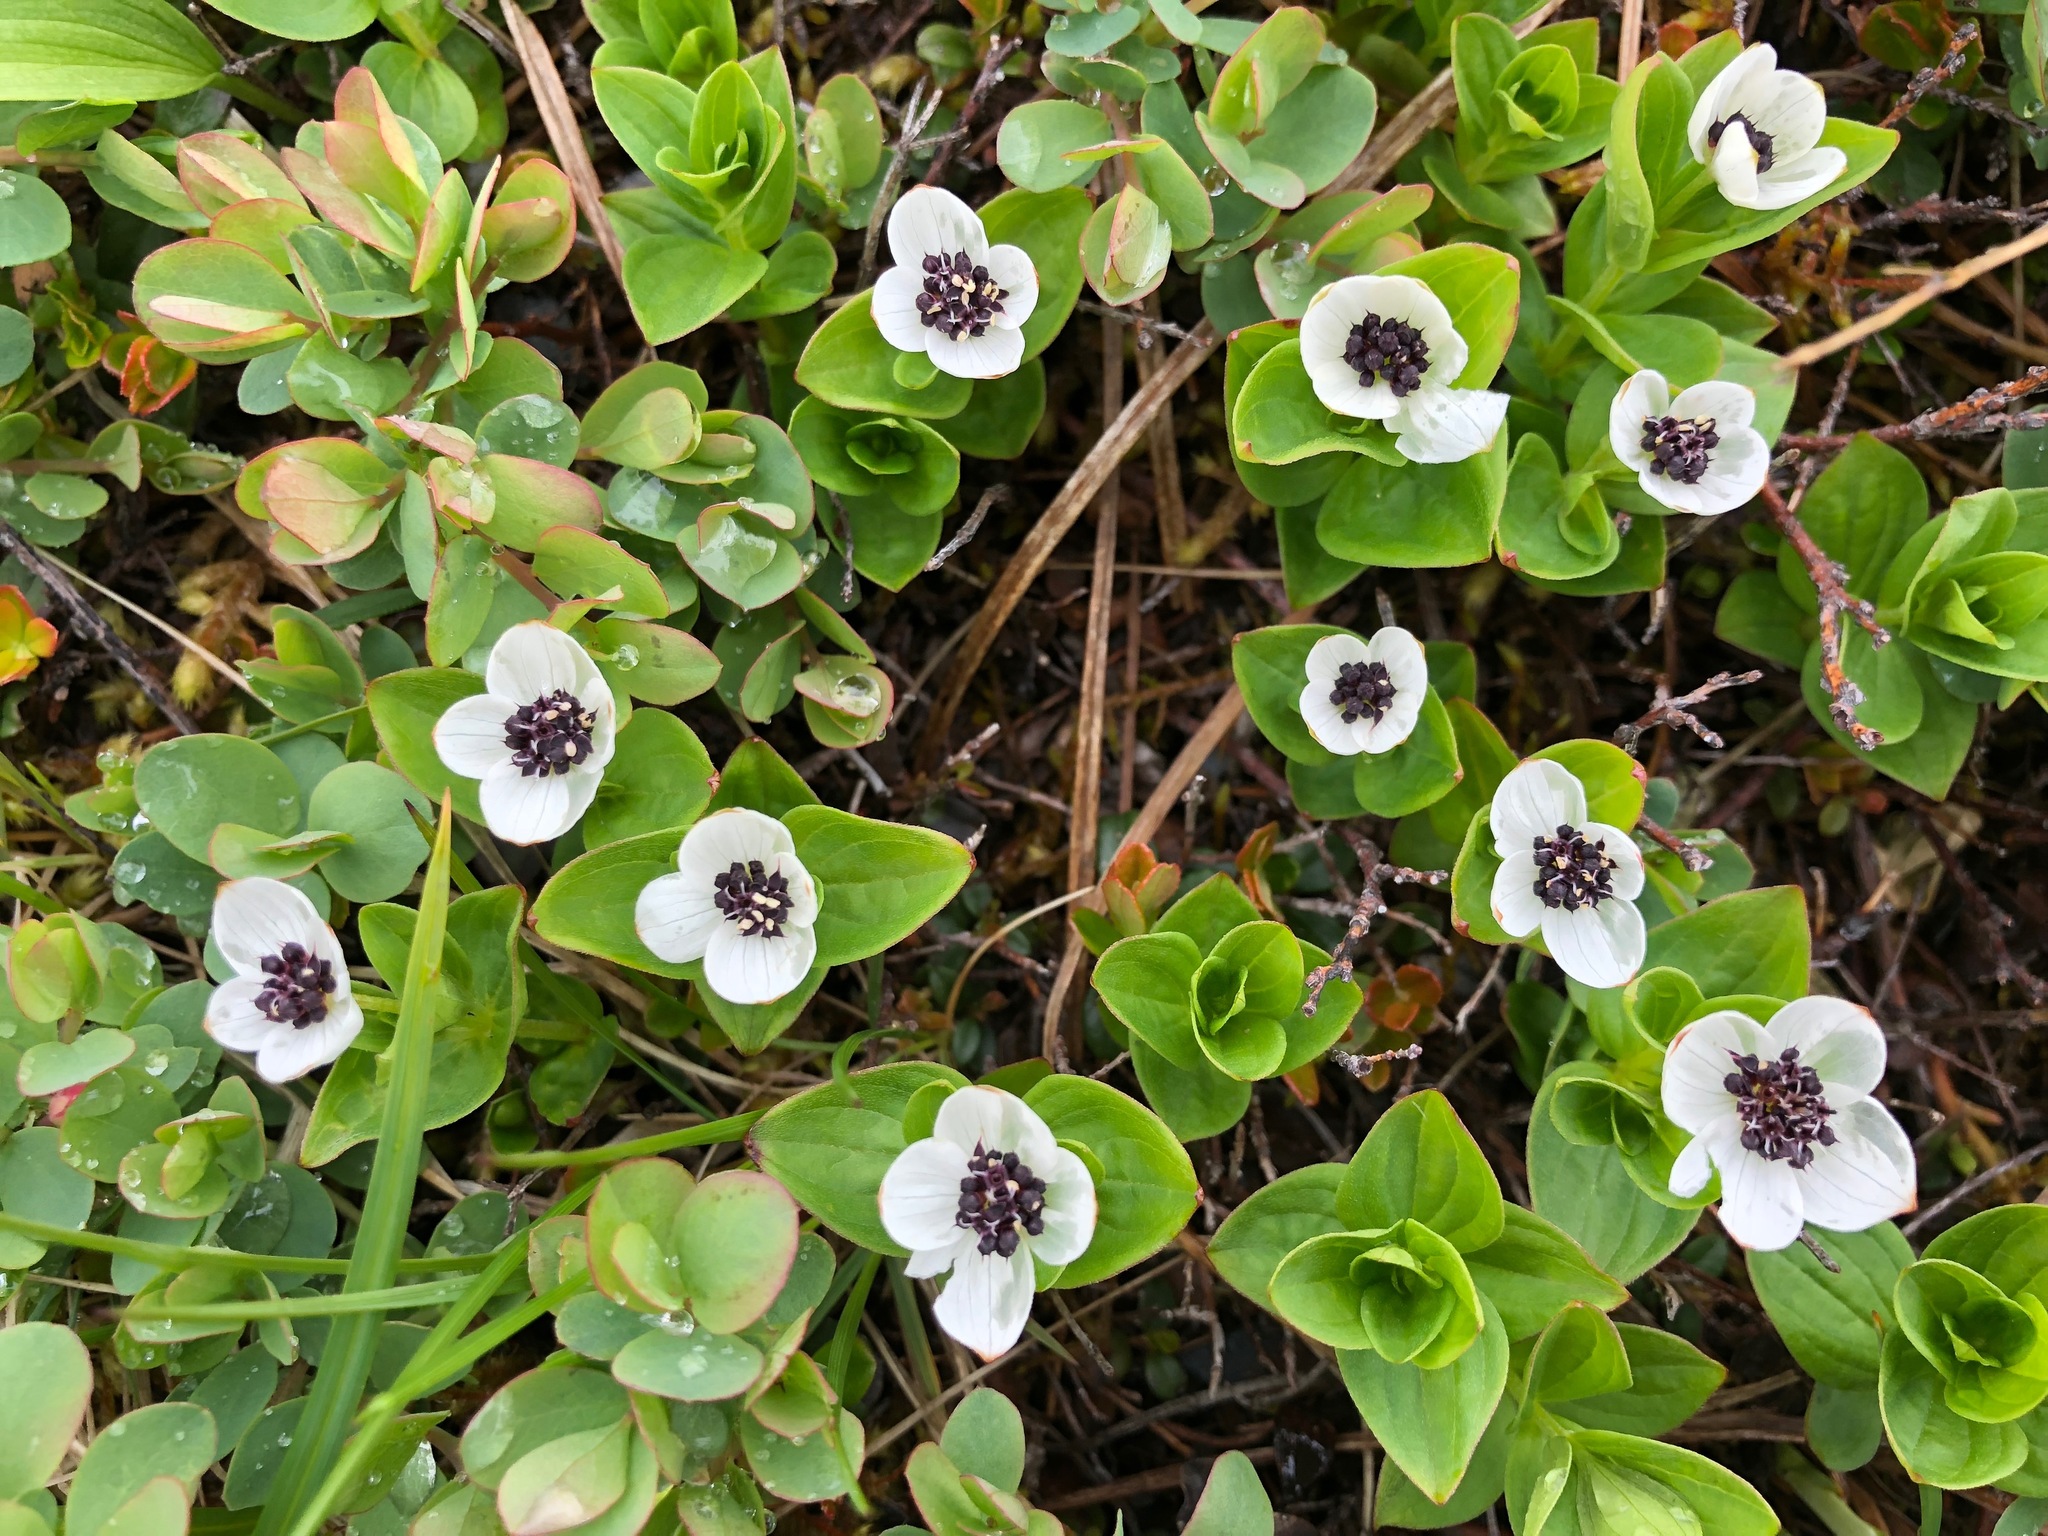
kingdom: Plantae
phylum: Tracheophyta
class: Magnoliopsida
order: Cornales
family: Cornaceae
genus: Cornus
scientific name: Cornus suecica
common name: Dwarf cornel
